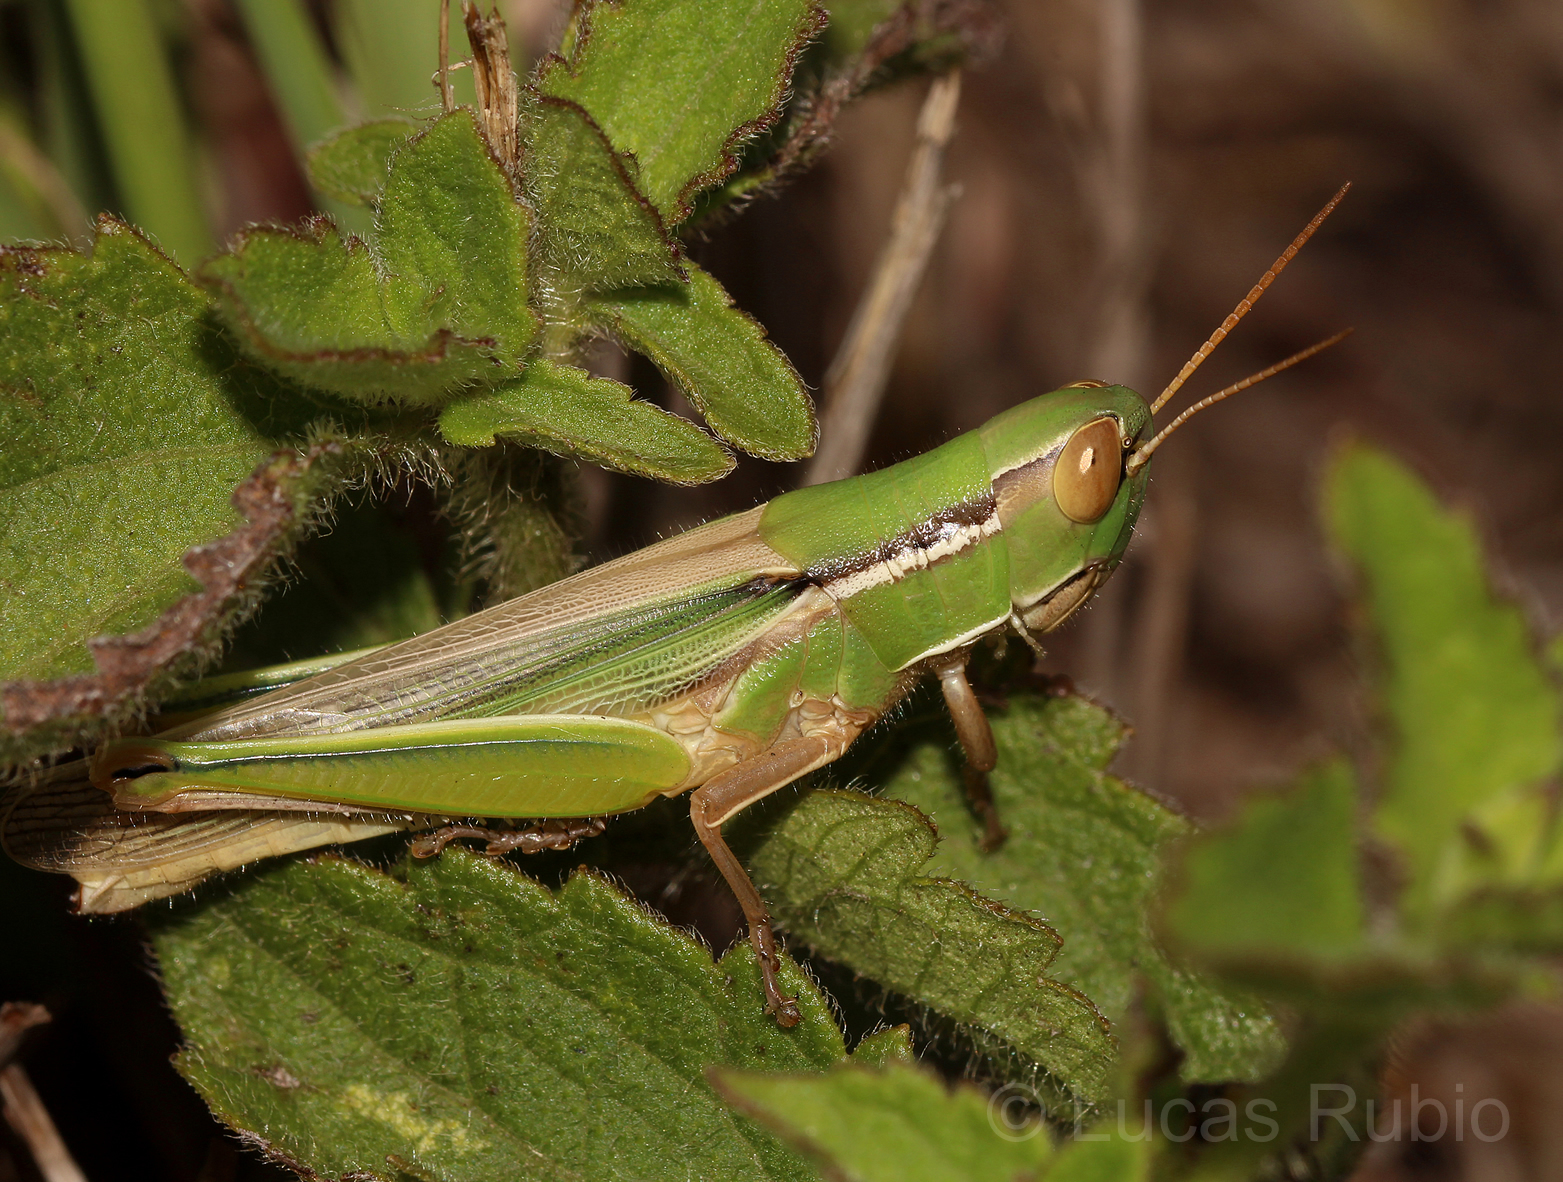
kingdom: Animalia
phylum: Arthropoda
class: Insecta
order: Orthoptera
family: Acrididae
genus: Aleuas
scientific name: Aleuas lineatus
